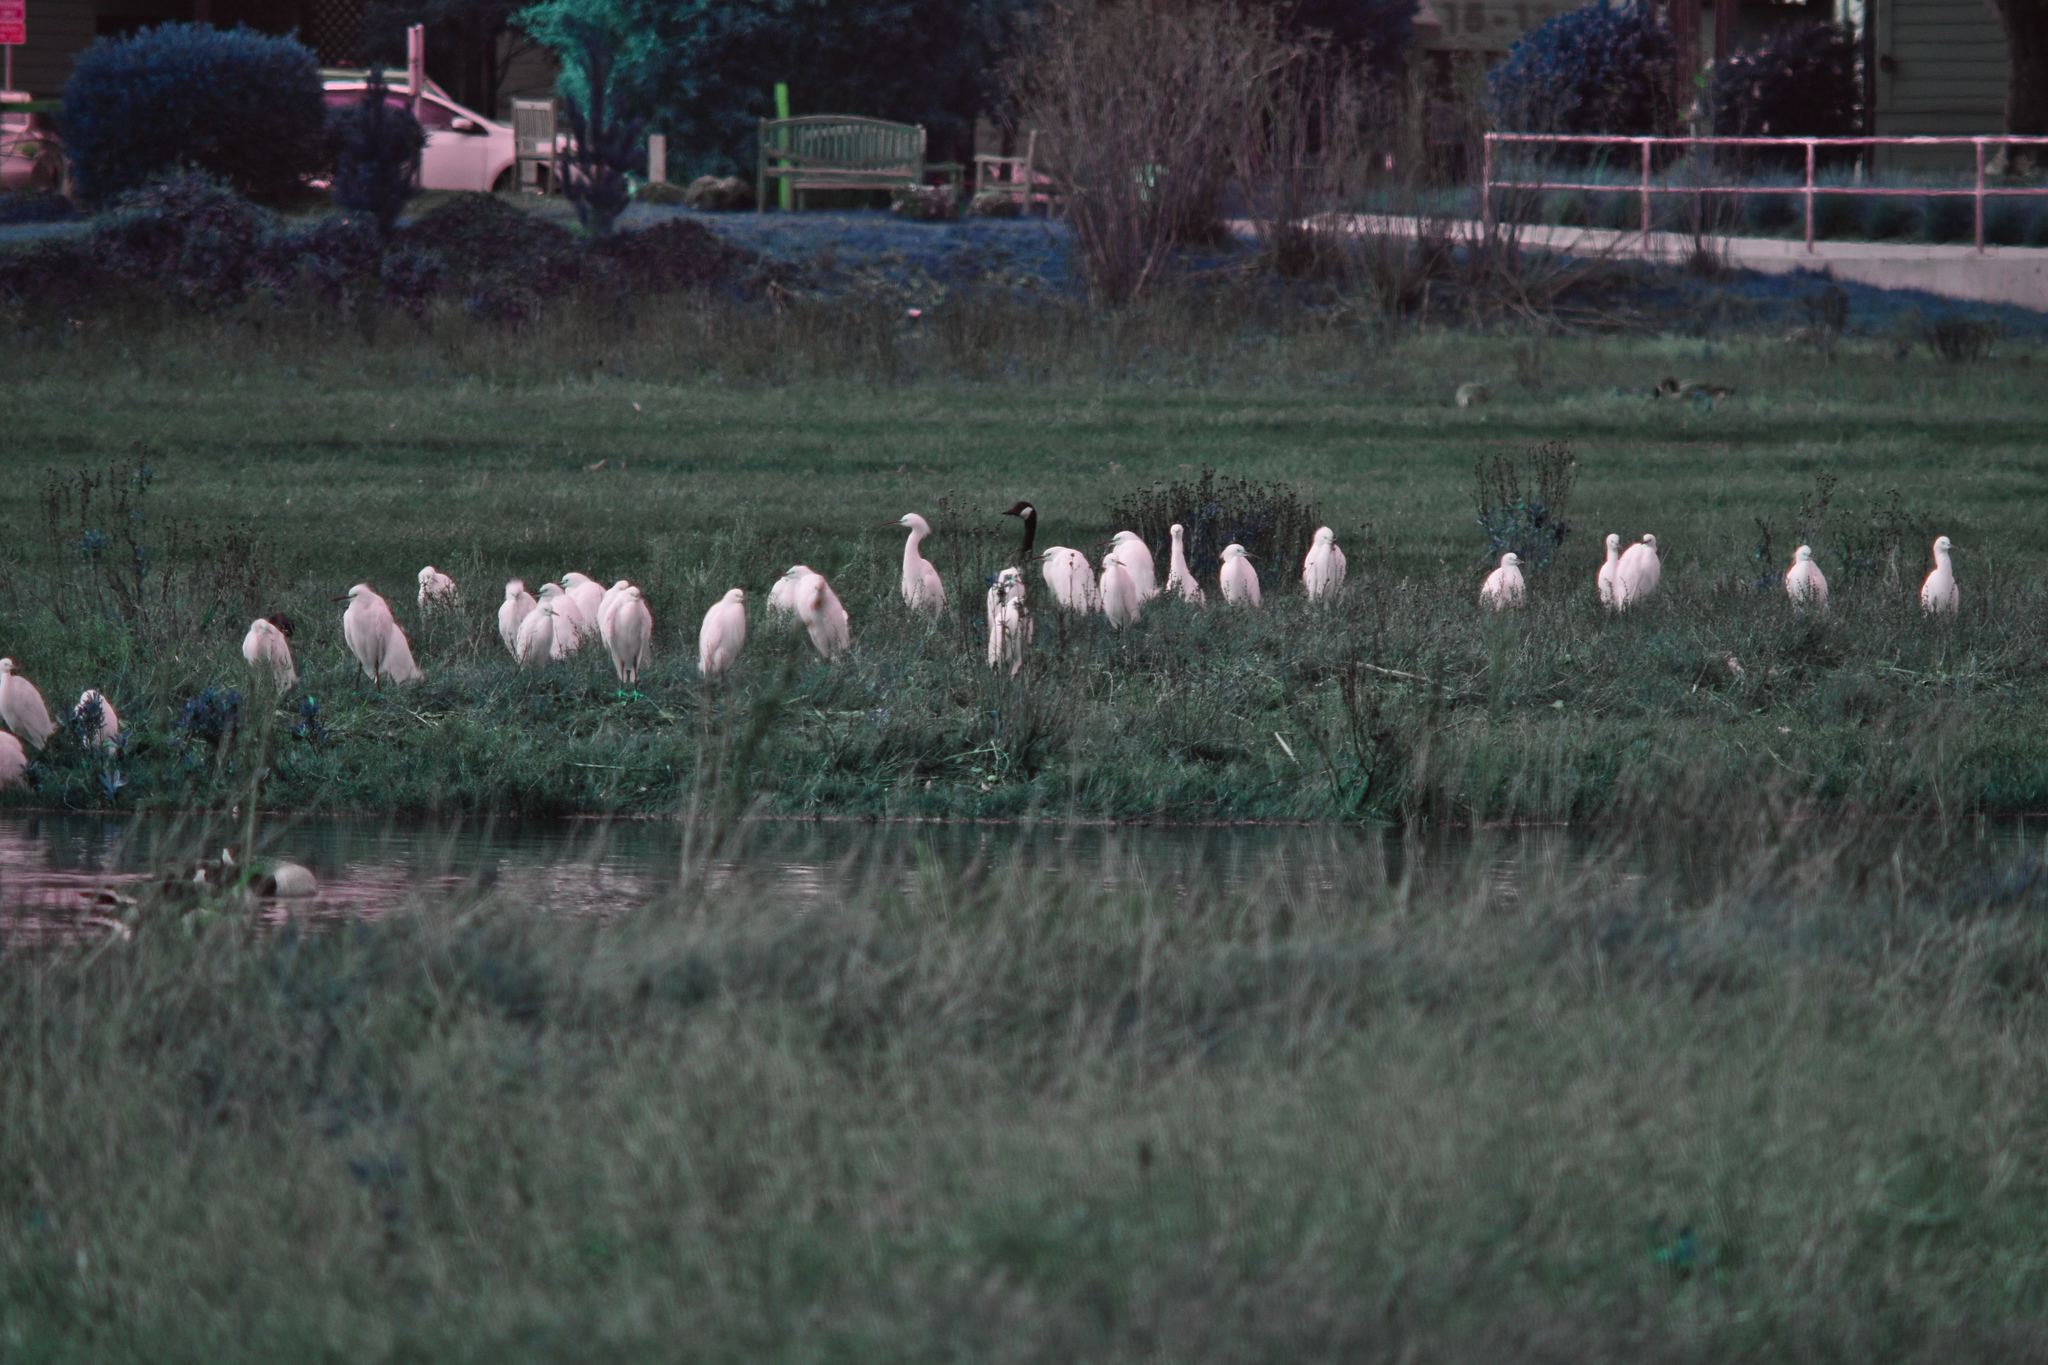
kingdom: Animalia
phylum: Chordata
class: Aves
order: Pelecaniformes
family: Ardeidae
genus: Egretta
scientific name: Egretta thula
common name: Snowy egret
